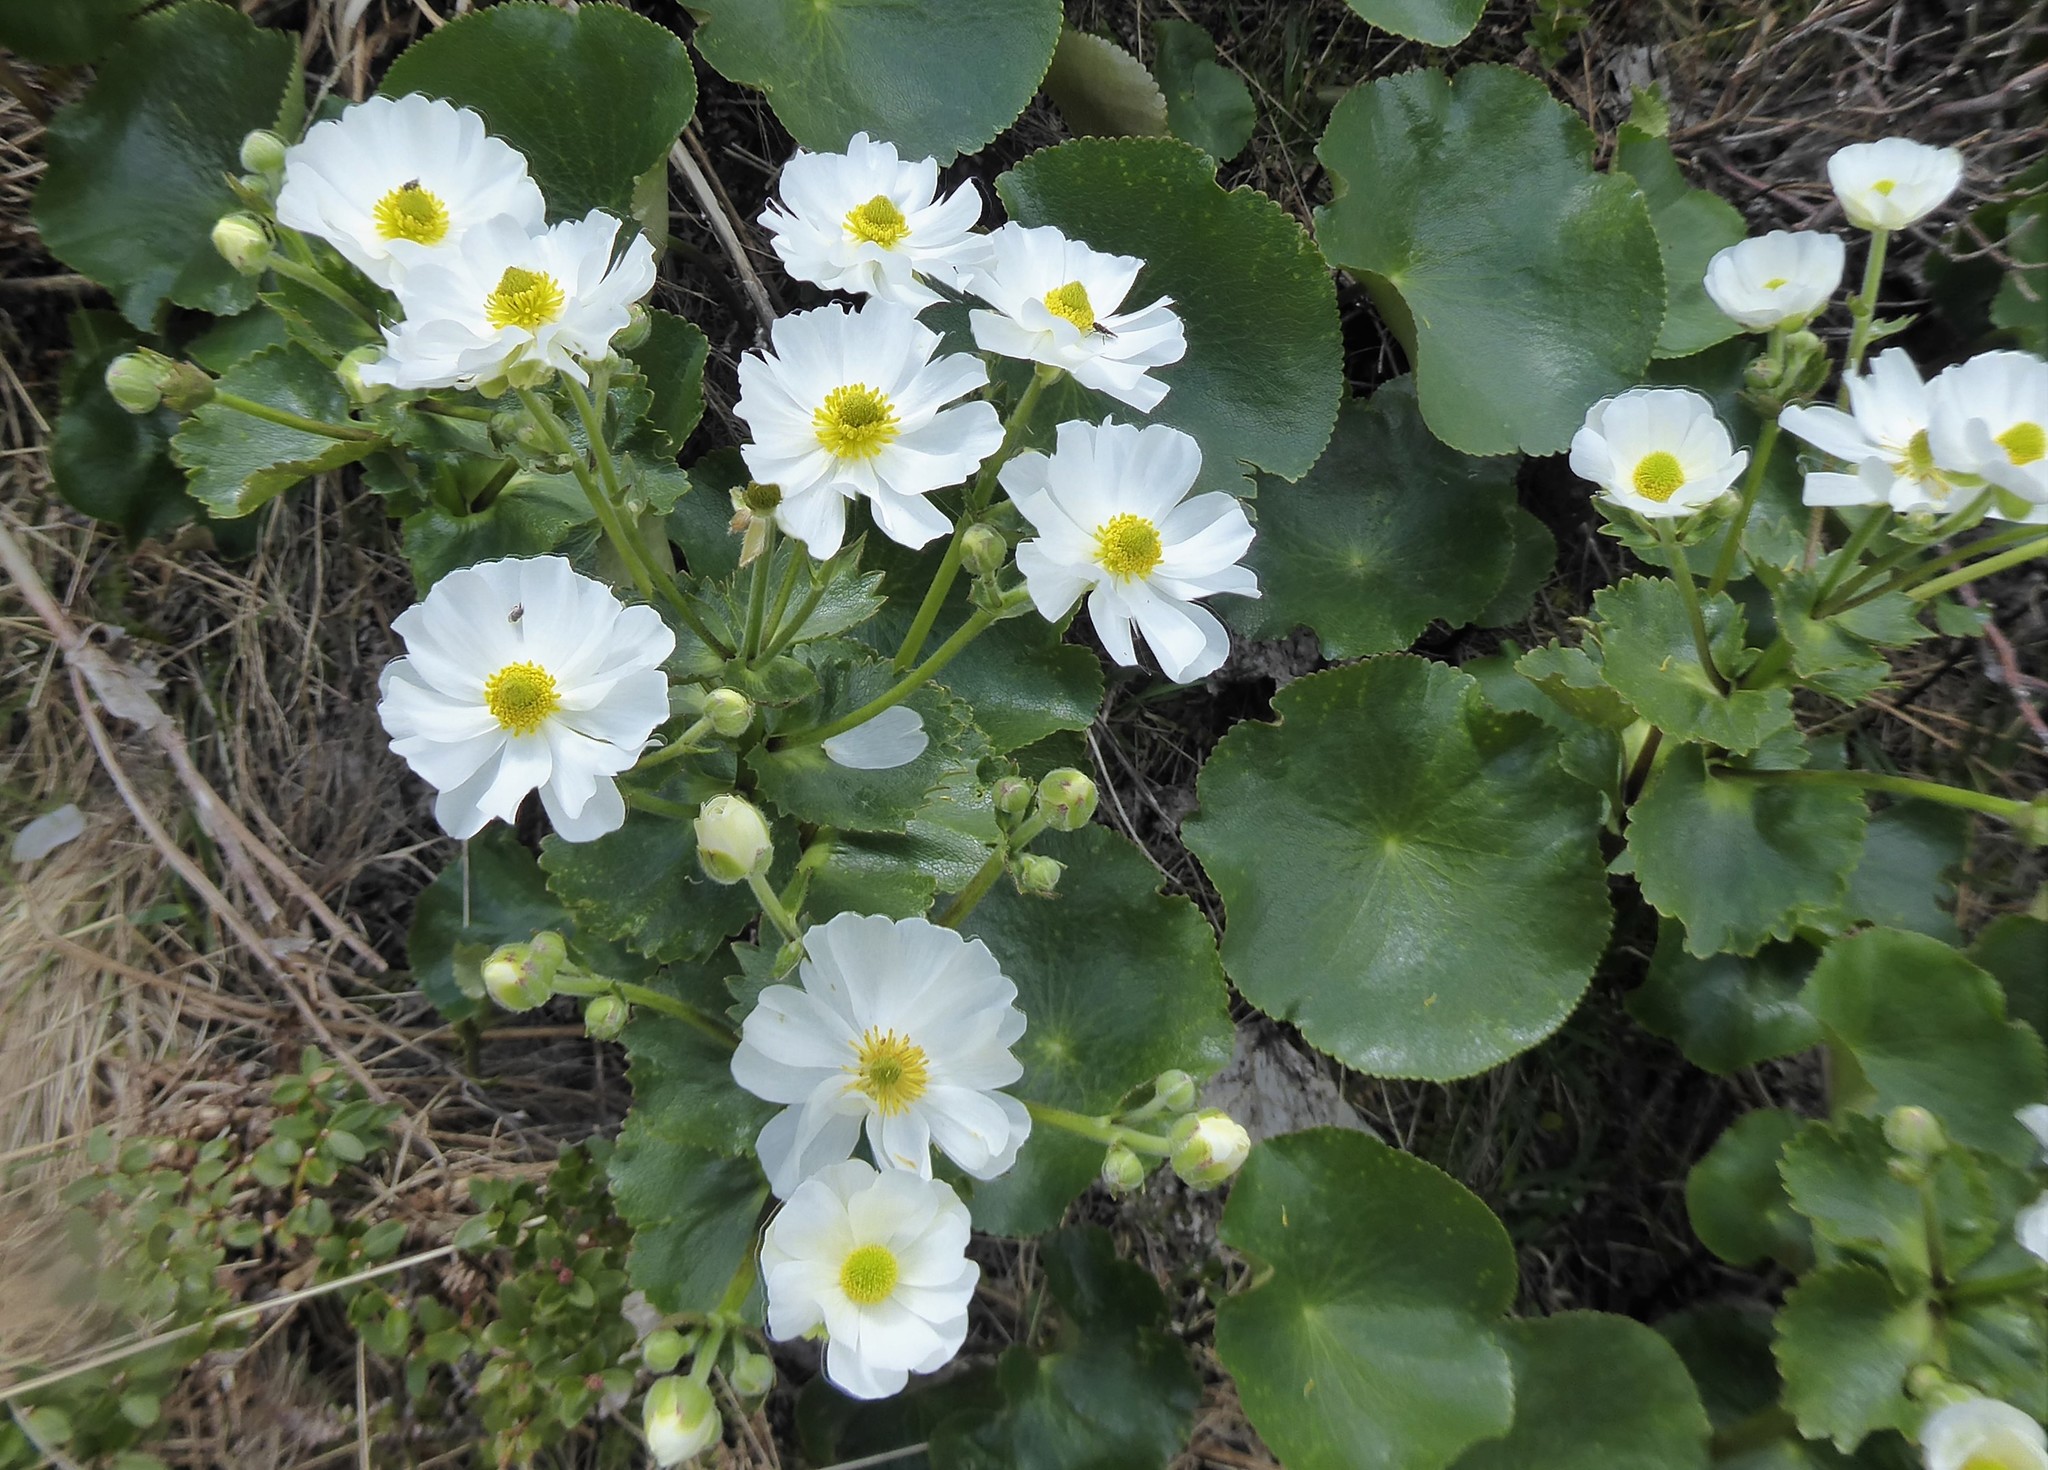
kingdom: Plantae
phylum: Tracheophyta
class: Magnoliopsida
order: Ranunculales
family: Ranunculaceae
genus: Ranunculus
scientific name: Ranunculus lyallii
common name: Mountain-lily
